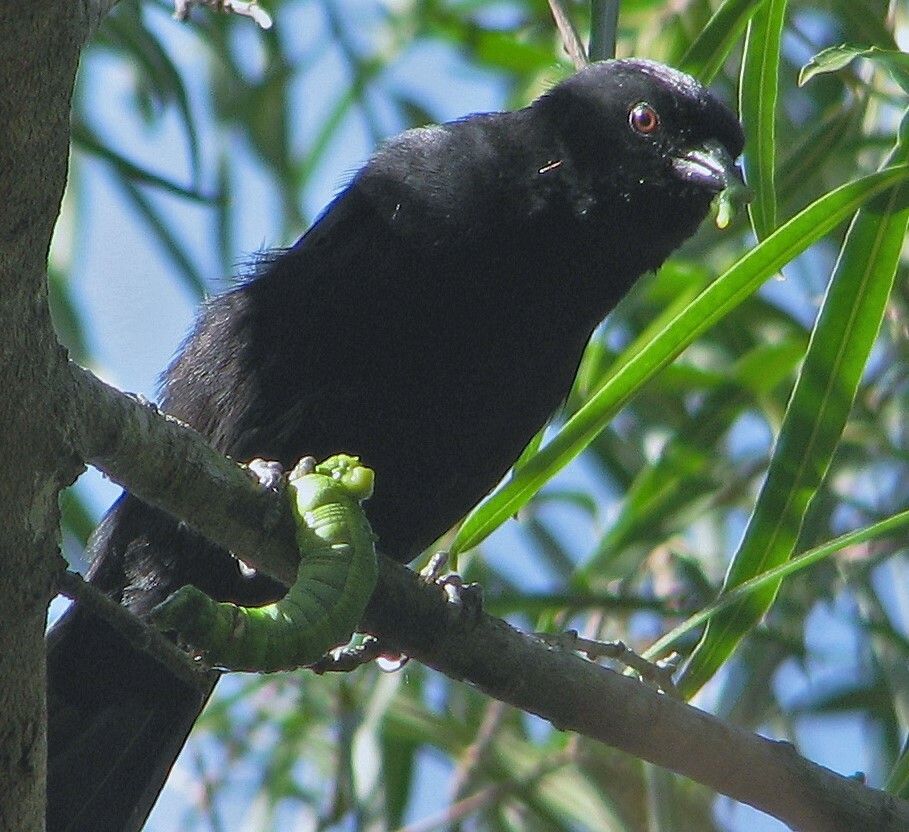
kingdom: Animalia
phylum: Chordata
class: Aves
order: Passeriformes
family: Icteridae
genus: Icterus
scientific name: Icterus cayanensis
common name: Epaulet oriole
